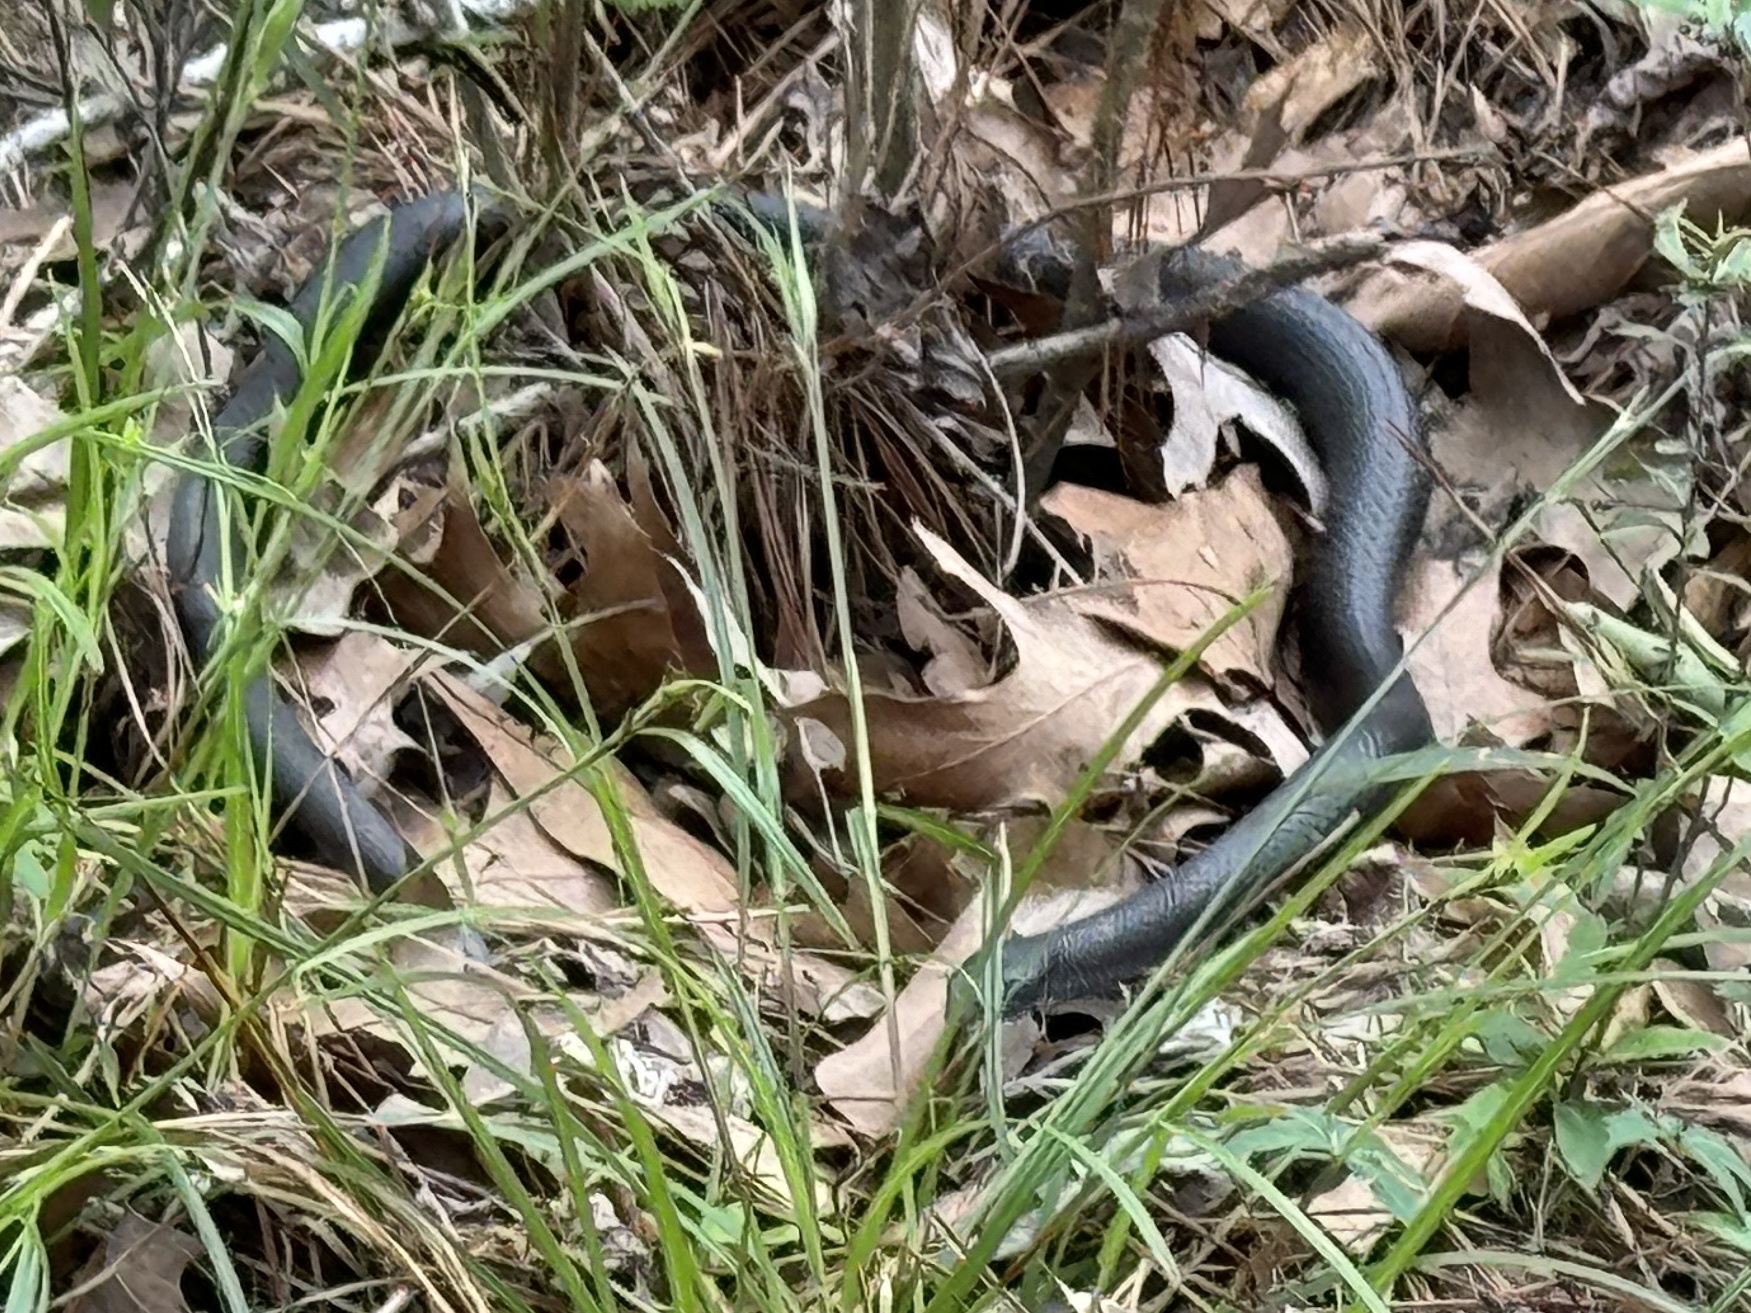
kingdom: Animalia
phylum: Chordata
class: Squamata
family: Colubridae
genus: Coluber
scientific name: Coluber constrictor
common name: Eastern racer
